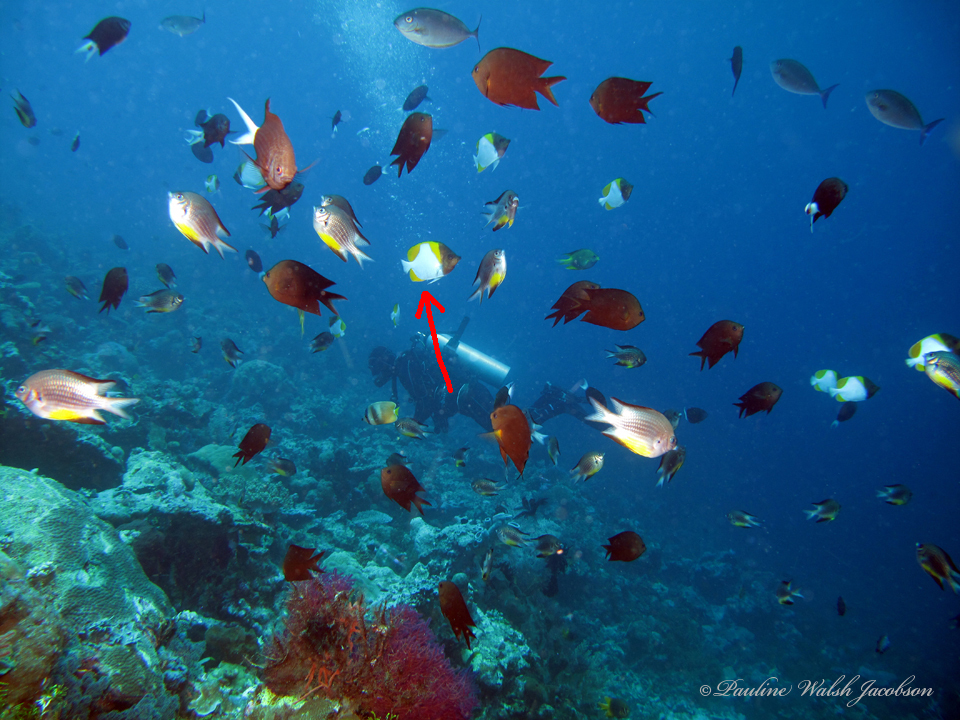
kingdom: Animalia
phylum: Chordata
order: Perciformes
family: Chaetodontidae
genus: Hemitaurichthys
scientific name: Hemitaurichthys polylepis
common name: Brushytoothed butterflyfish
